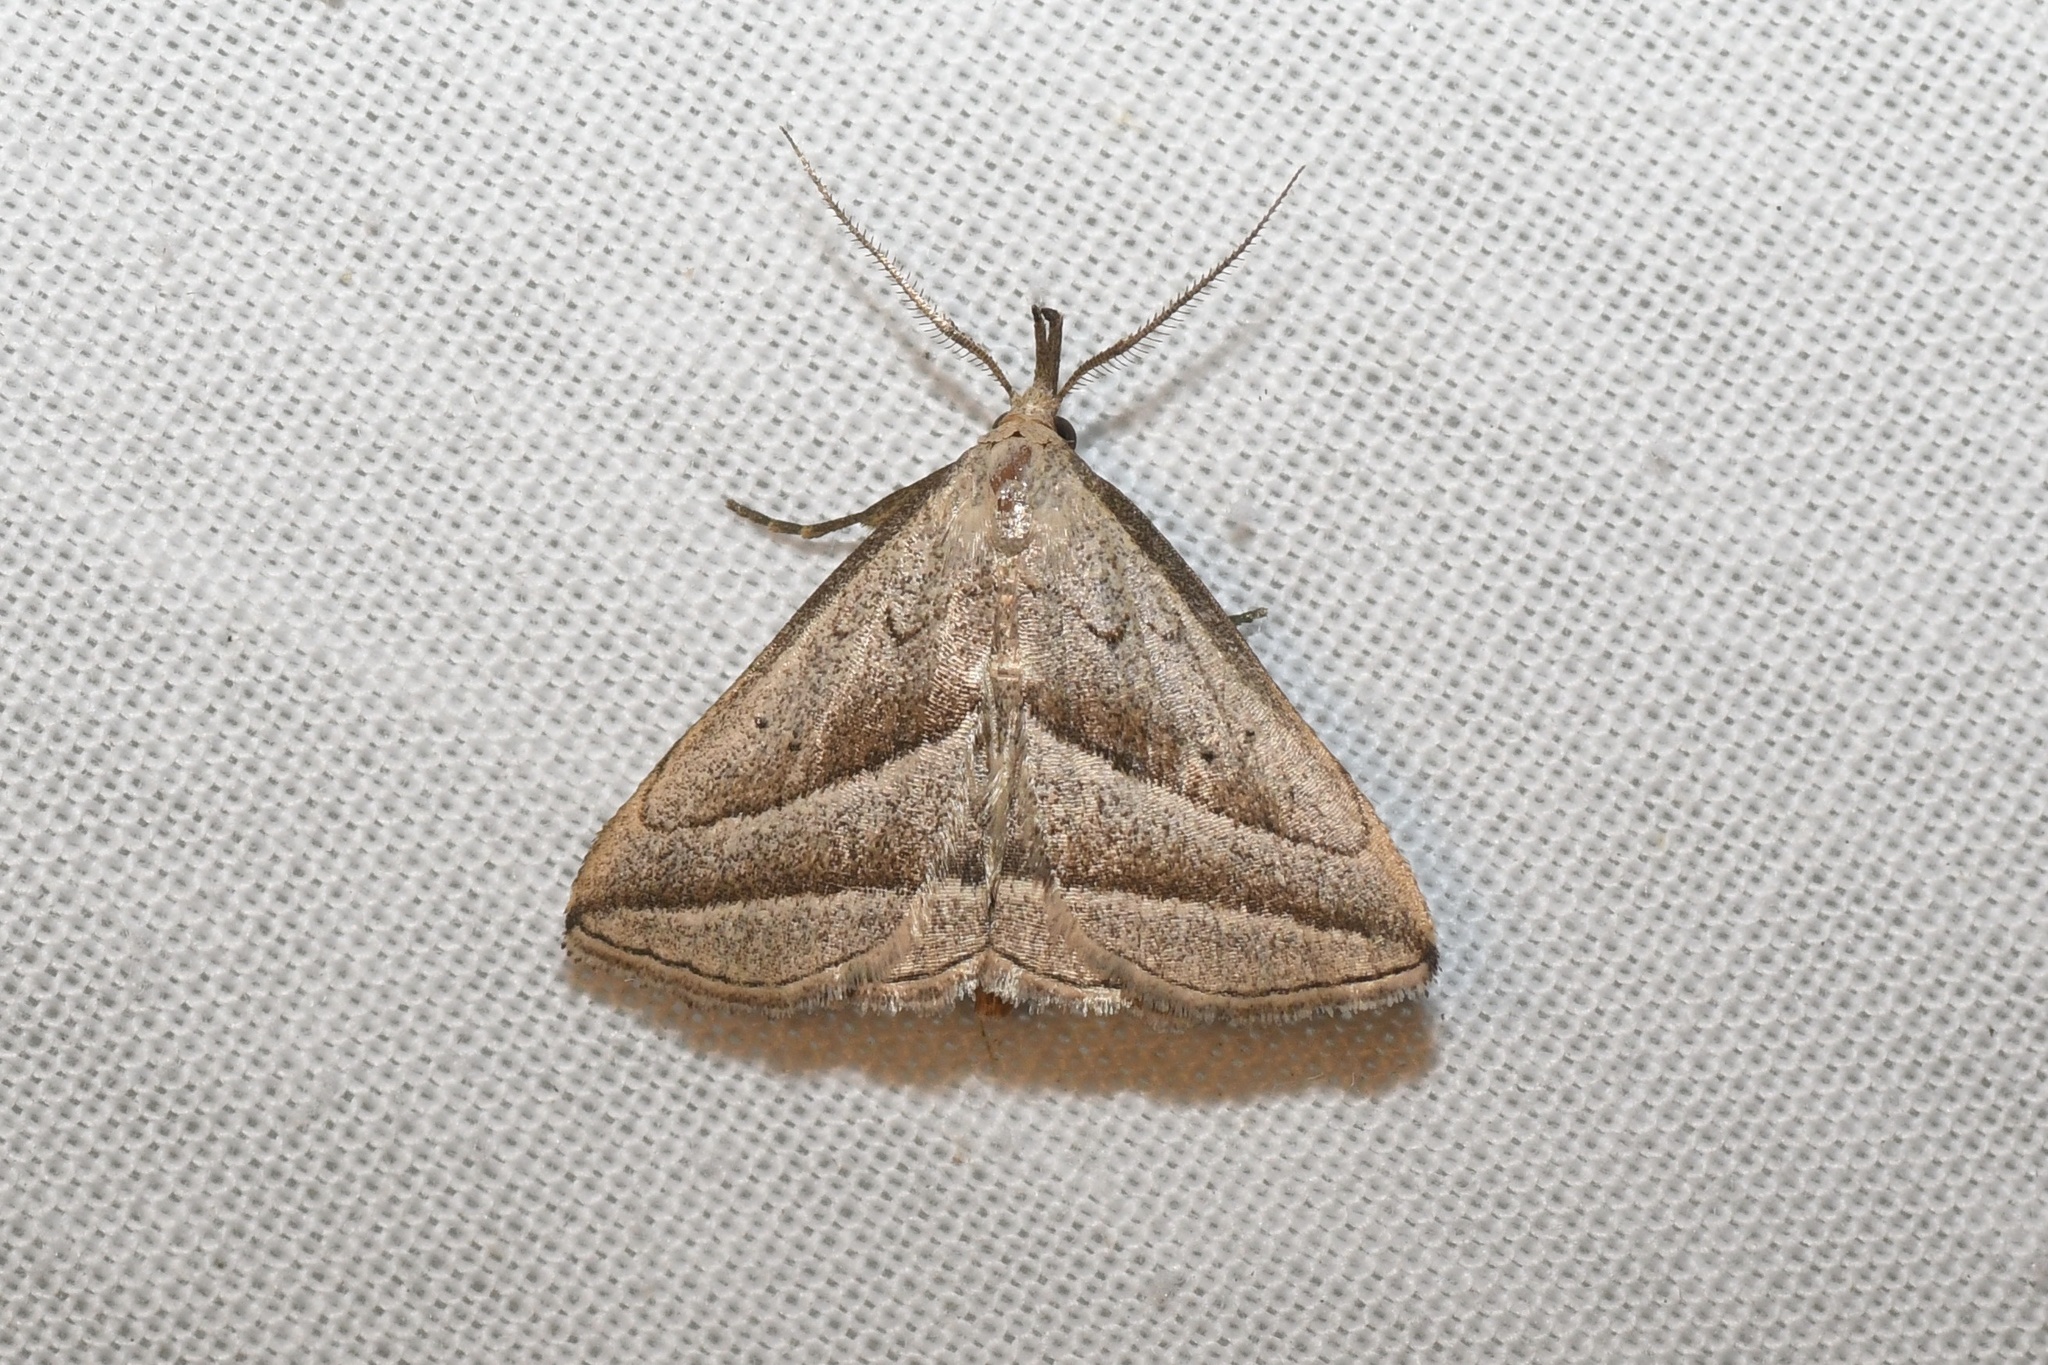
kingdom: Animalia
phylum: Arthropoda
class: Insecta
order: Lepidoptera
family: Erebidae
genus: Macrochilo
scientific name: Macrochilo absorptalis
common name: Slant-lined owlet
